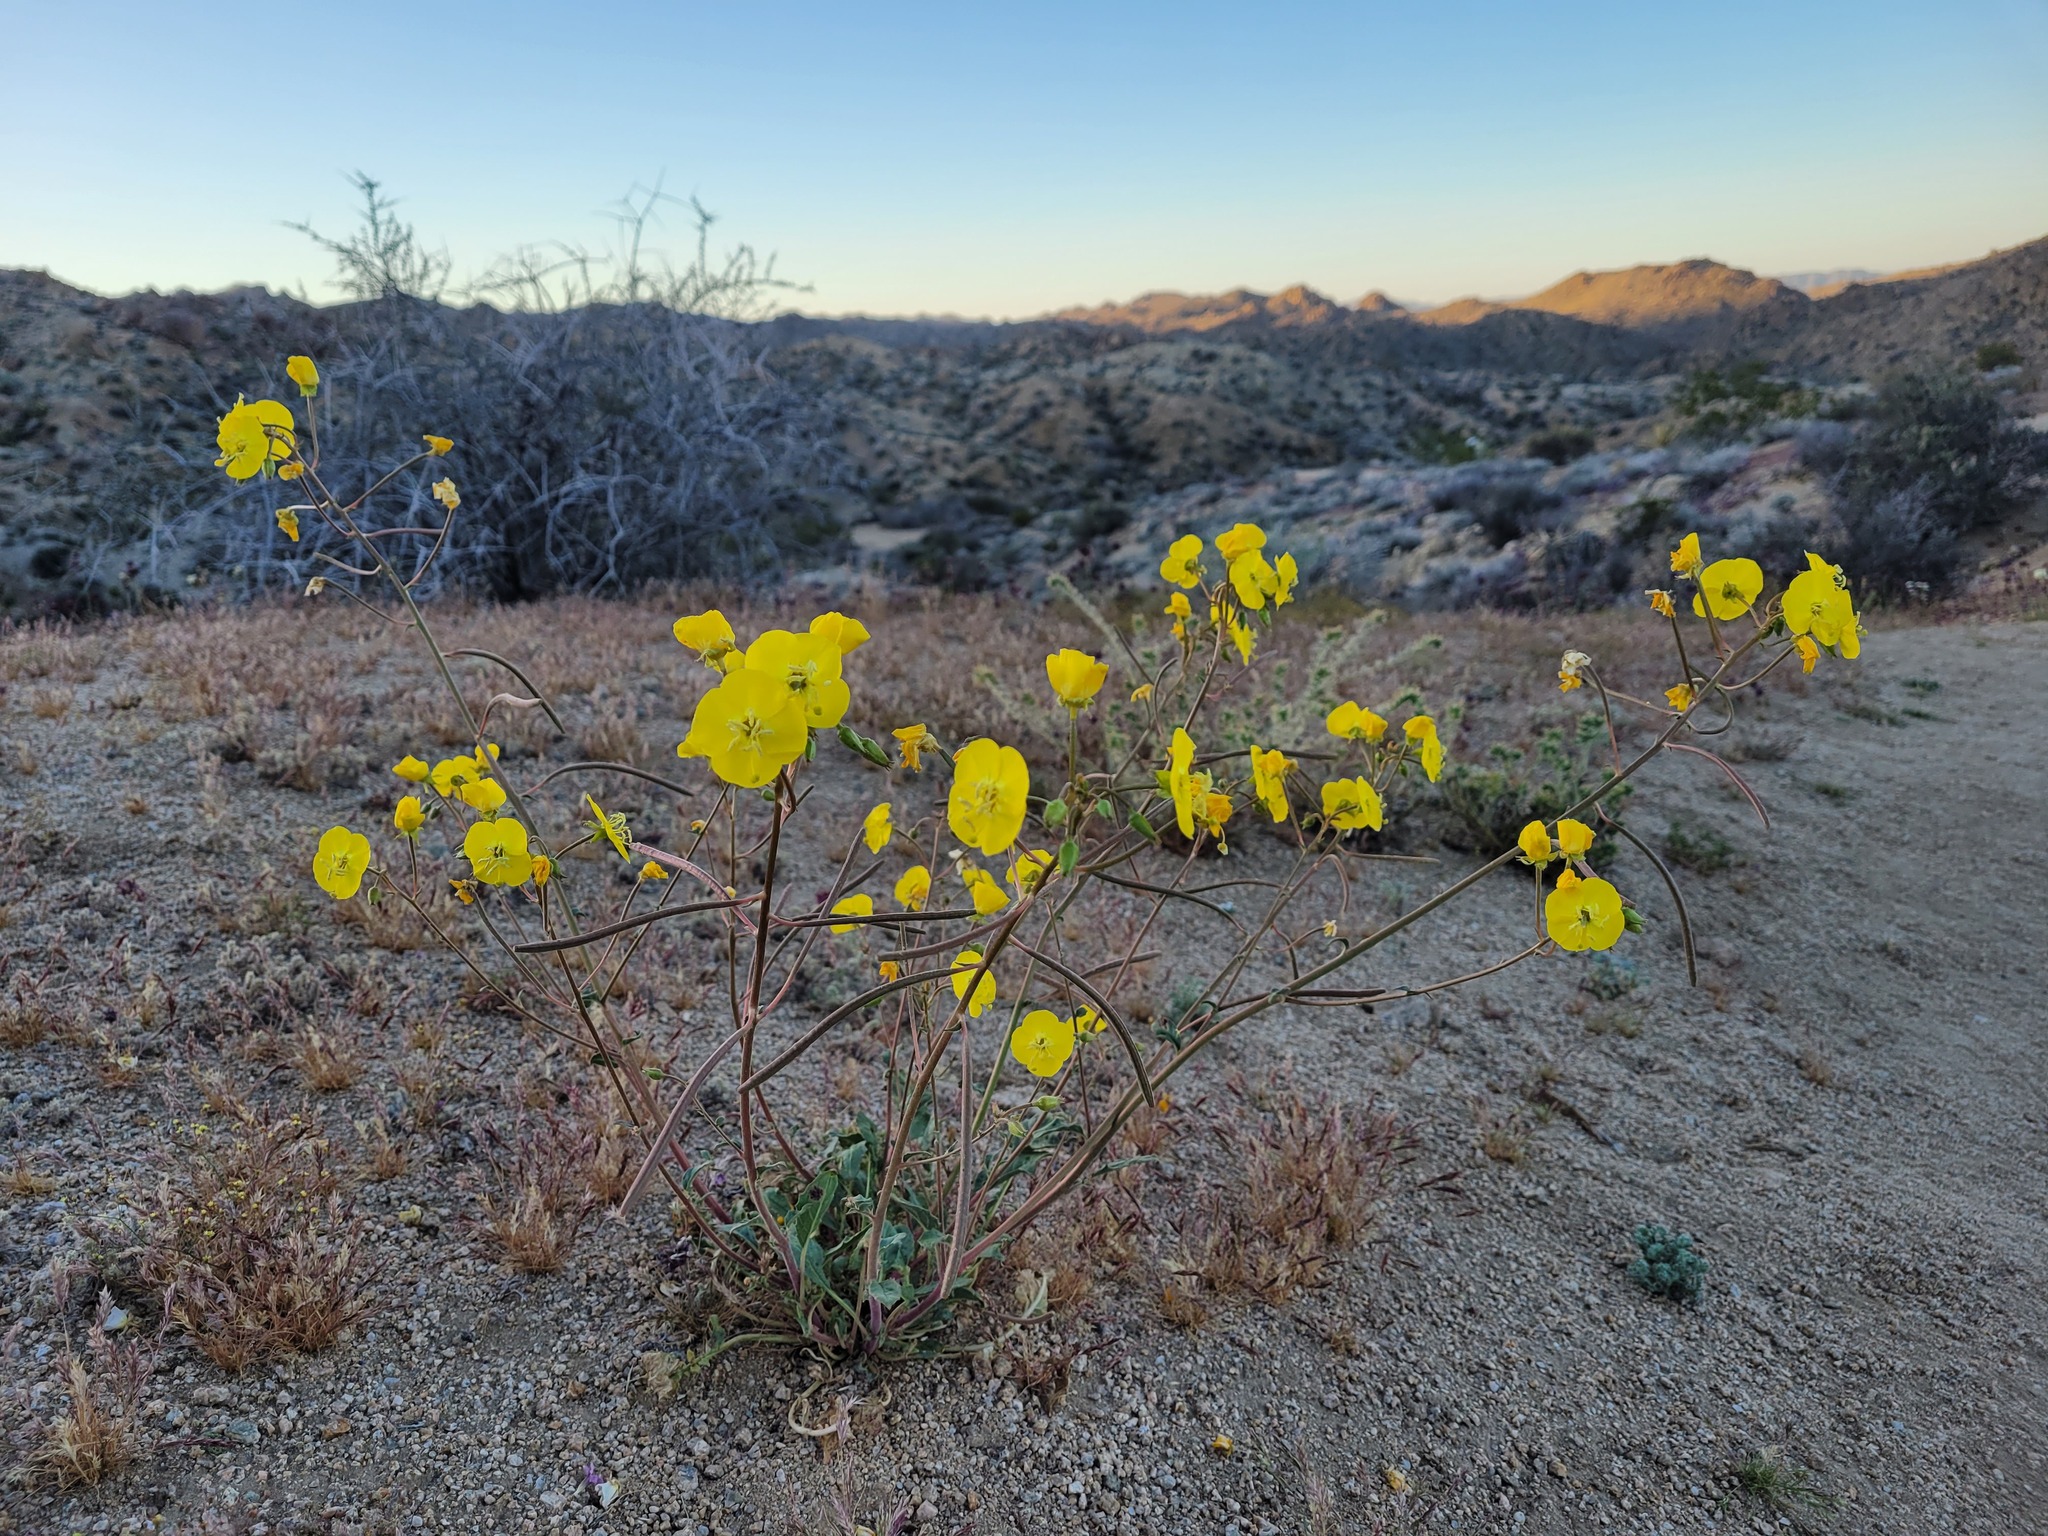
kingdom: Plantae
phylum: Tracheophyta
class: Magnoliopsida
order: Myrtales
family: Onagraceae
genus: Chylismia
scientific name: Chylismia brevipes
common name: Yellow cups
